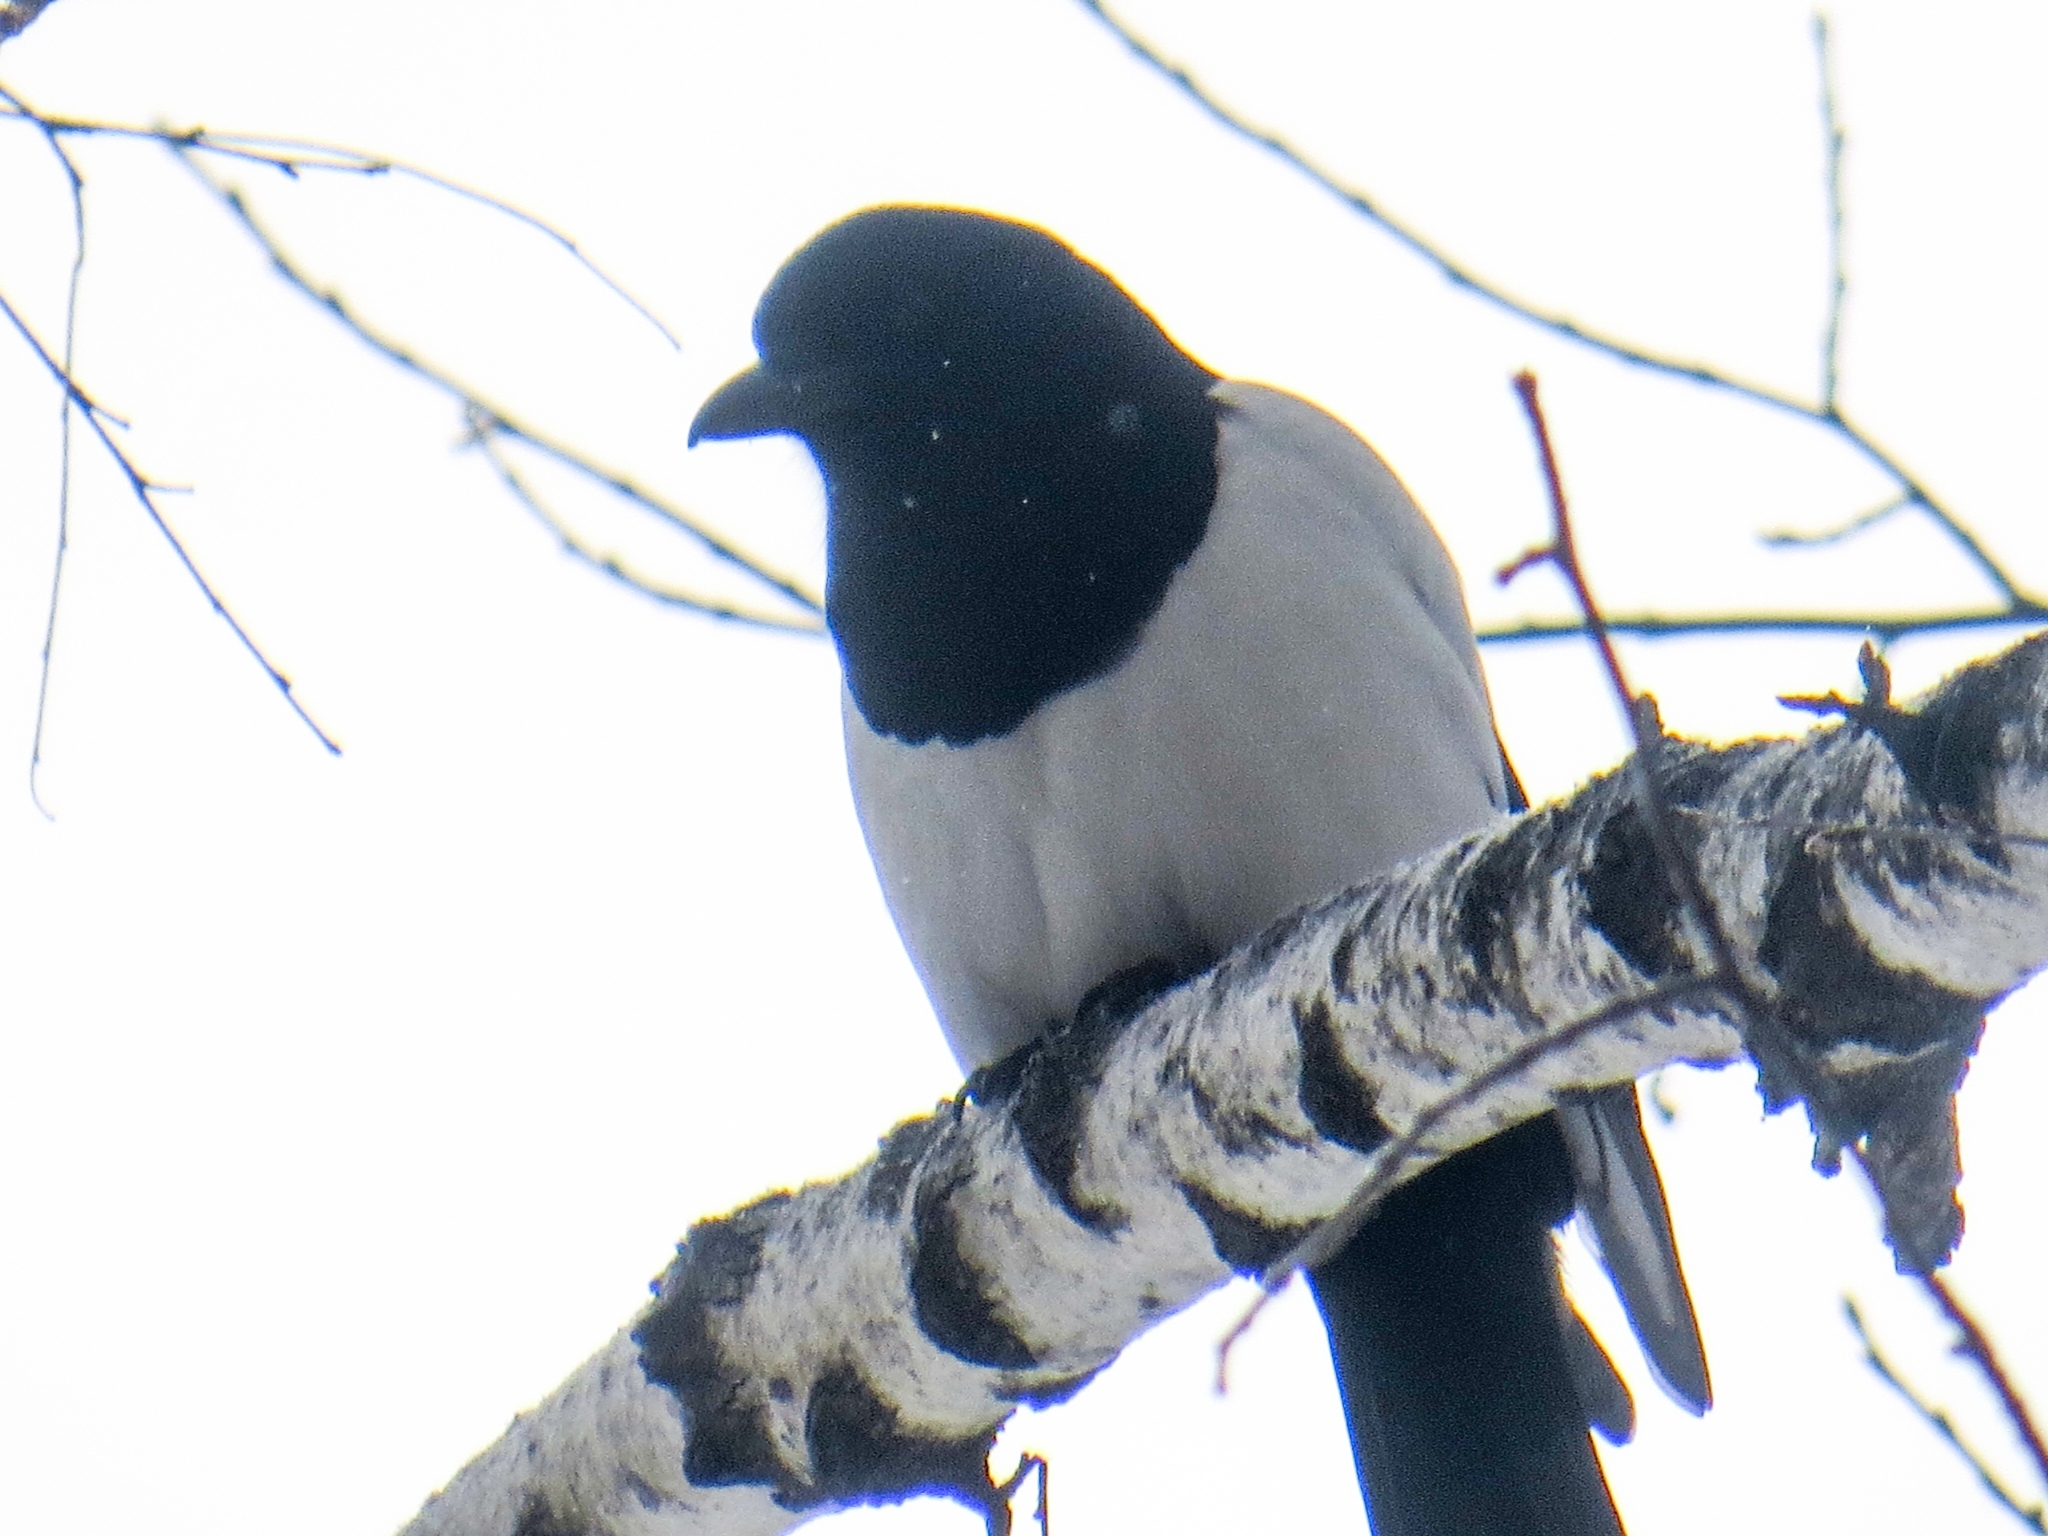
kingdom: Animalia
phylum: Chordata
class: Aves
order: Passeriformes
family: Corvidae
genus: Pica
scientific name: Pica pica
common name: Eurasian magpie
